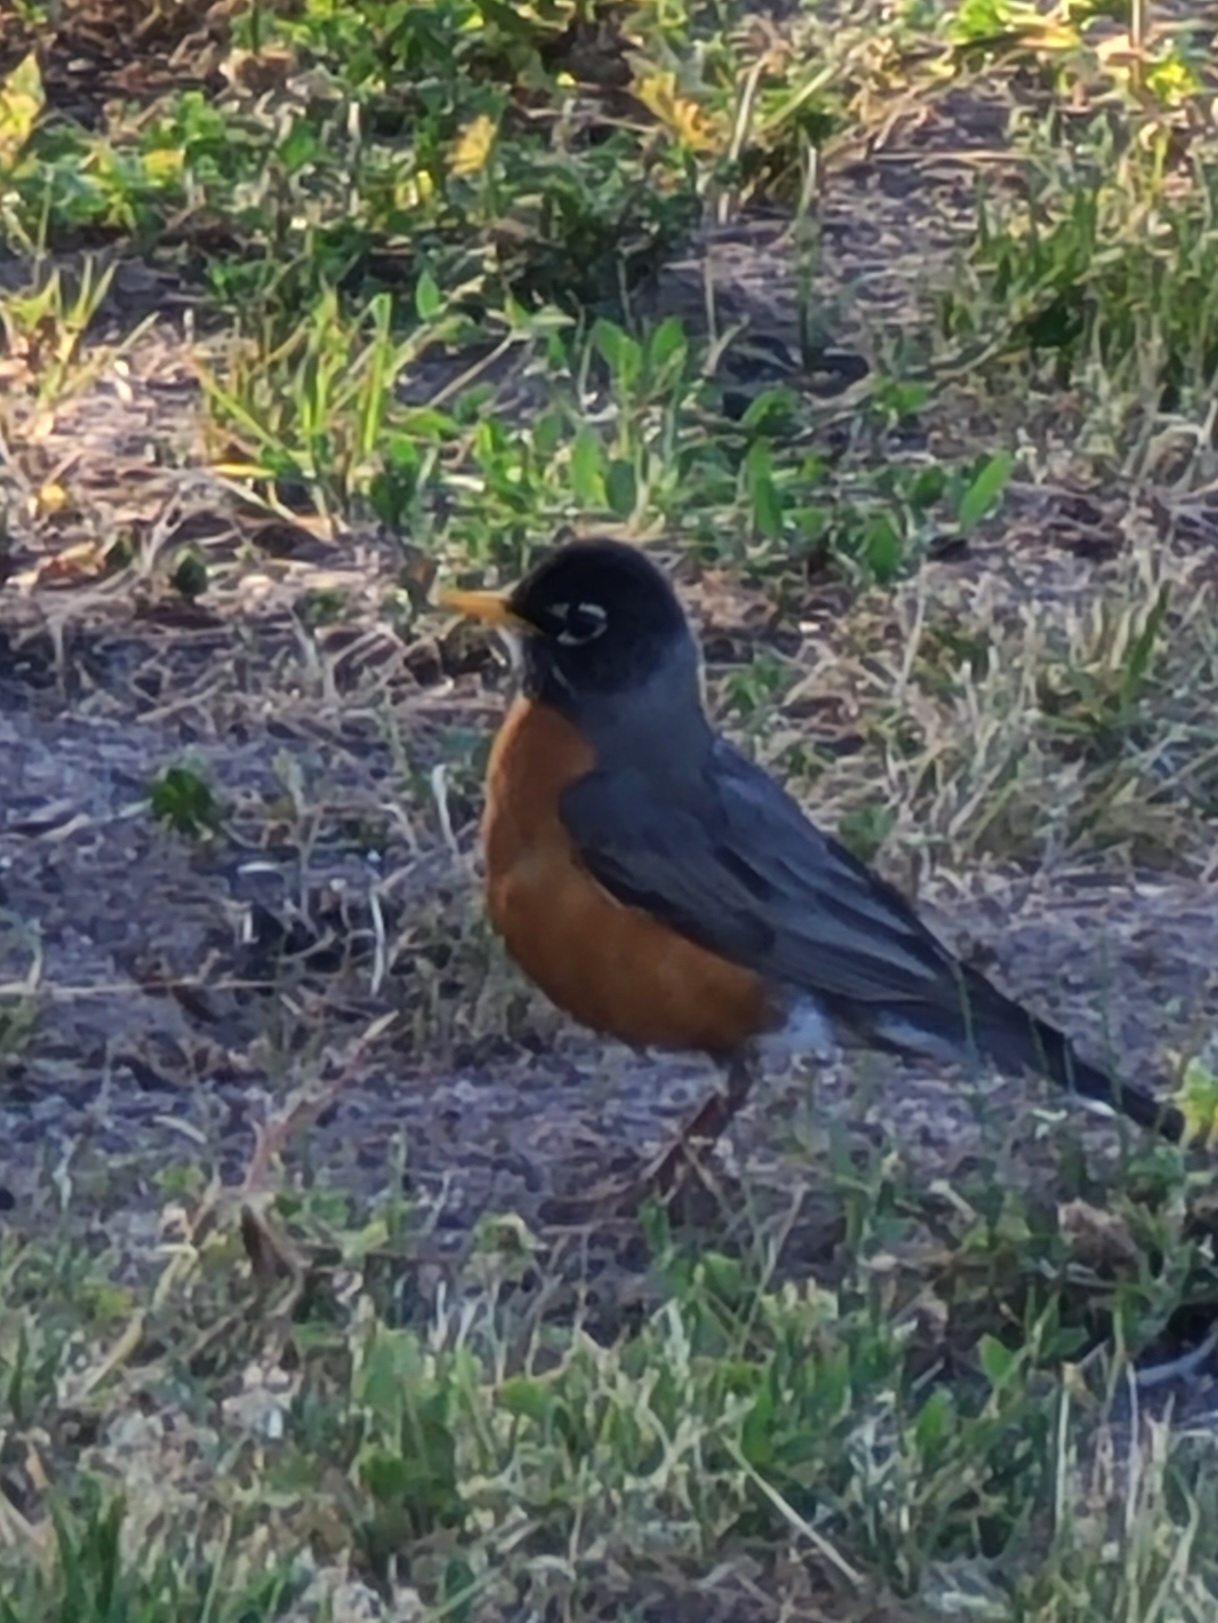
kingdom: Animalia
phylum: Chordata
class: Aves
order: Passeriformes
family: Turdidae
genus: Turdus
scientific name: Turdus migratorius
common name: American robin
